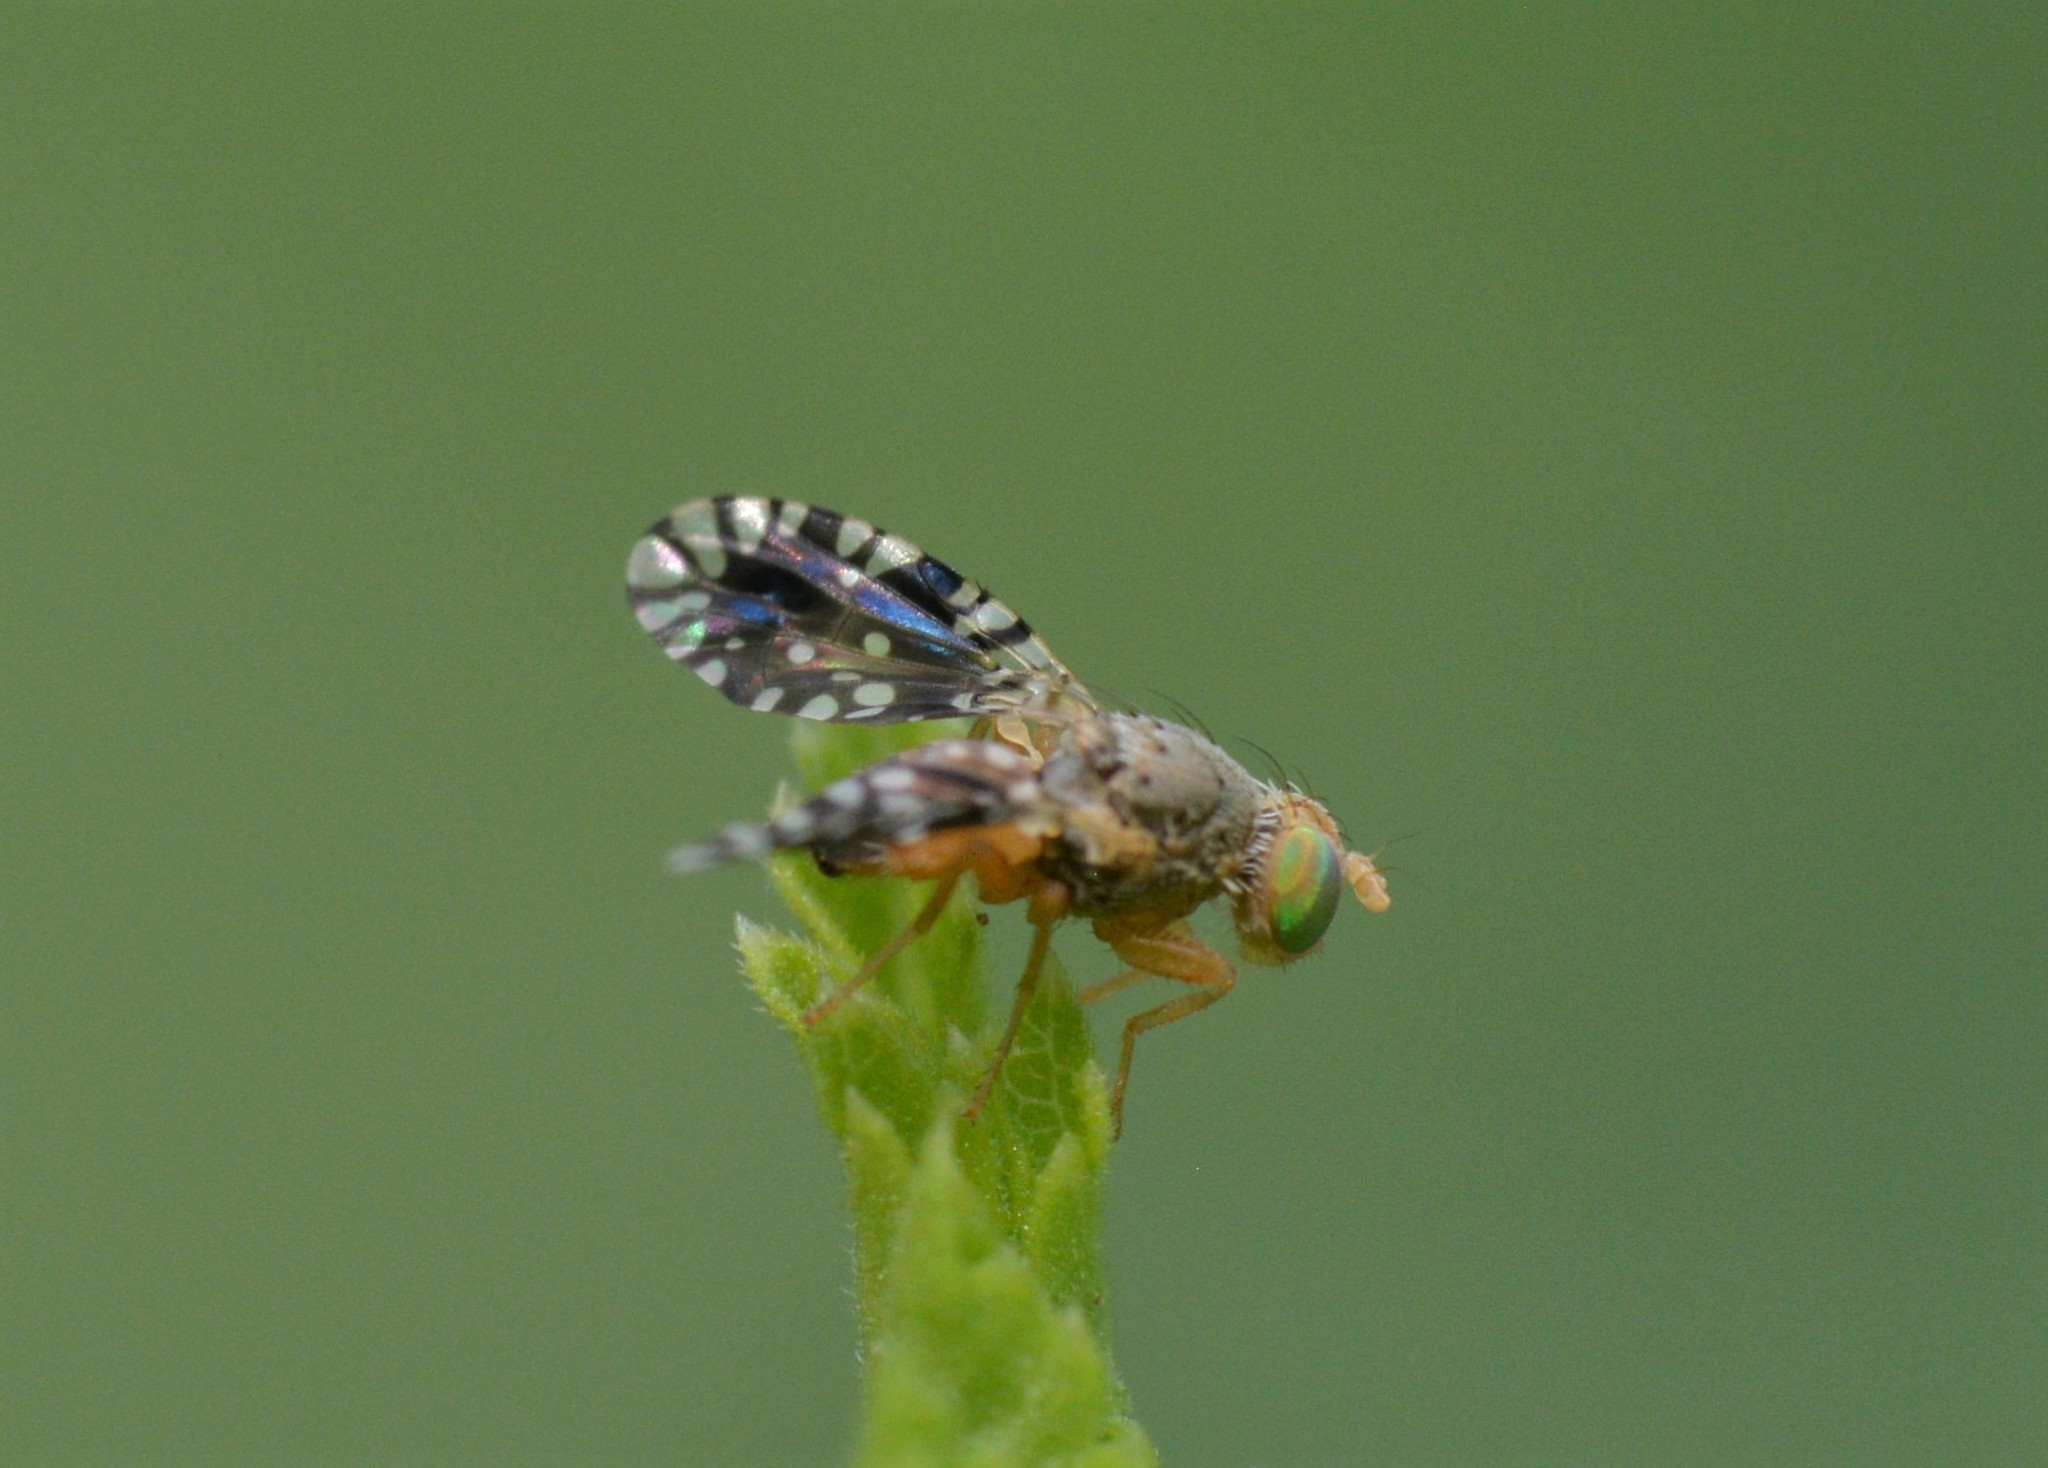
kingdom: Animalia
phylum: Arthropoda
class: Insecta
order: Diptera
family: Tephritidae
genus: Euaresta
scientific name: Euaresta bella
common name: Common ragweed fruit fly
